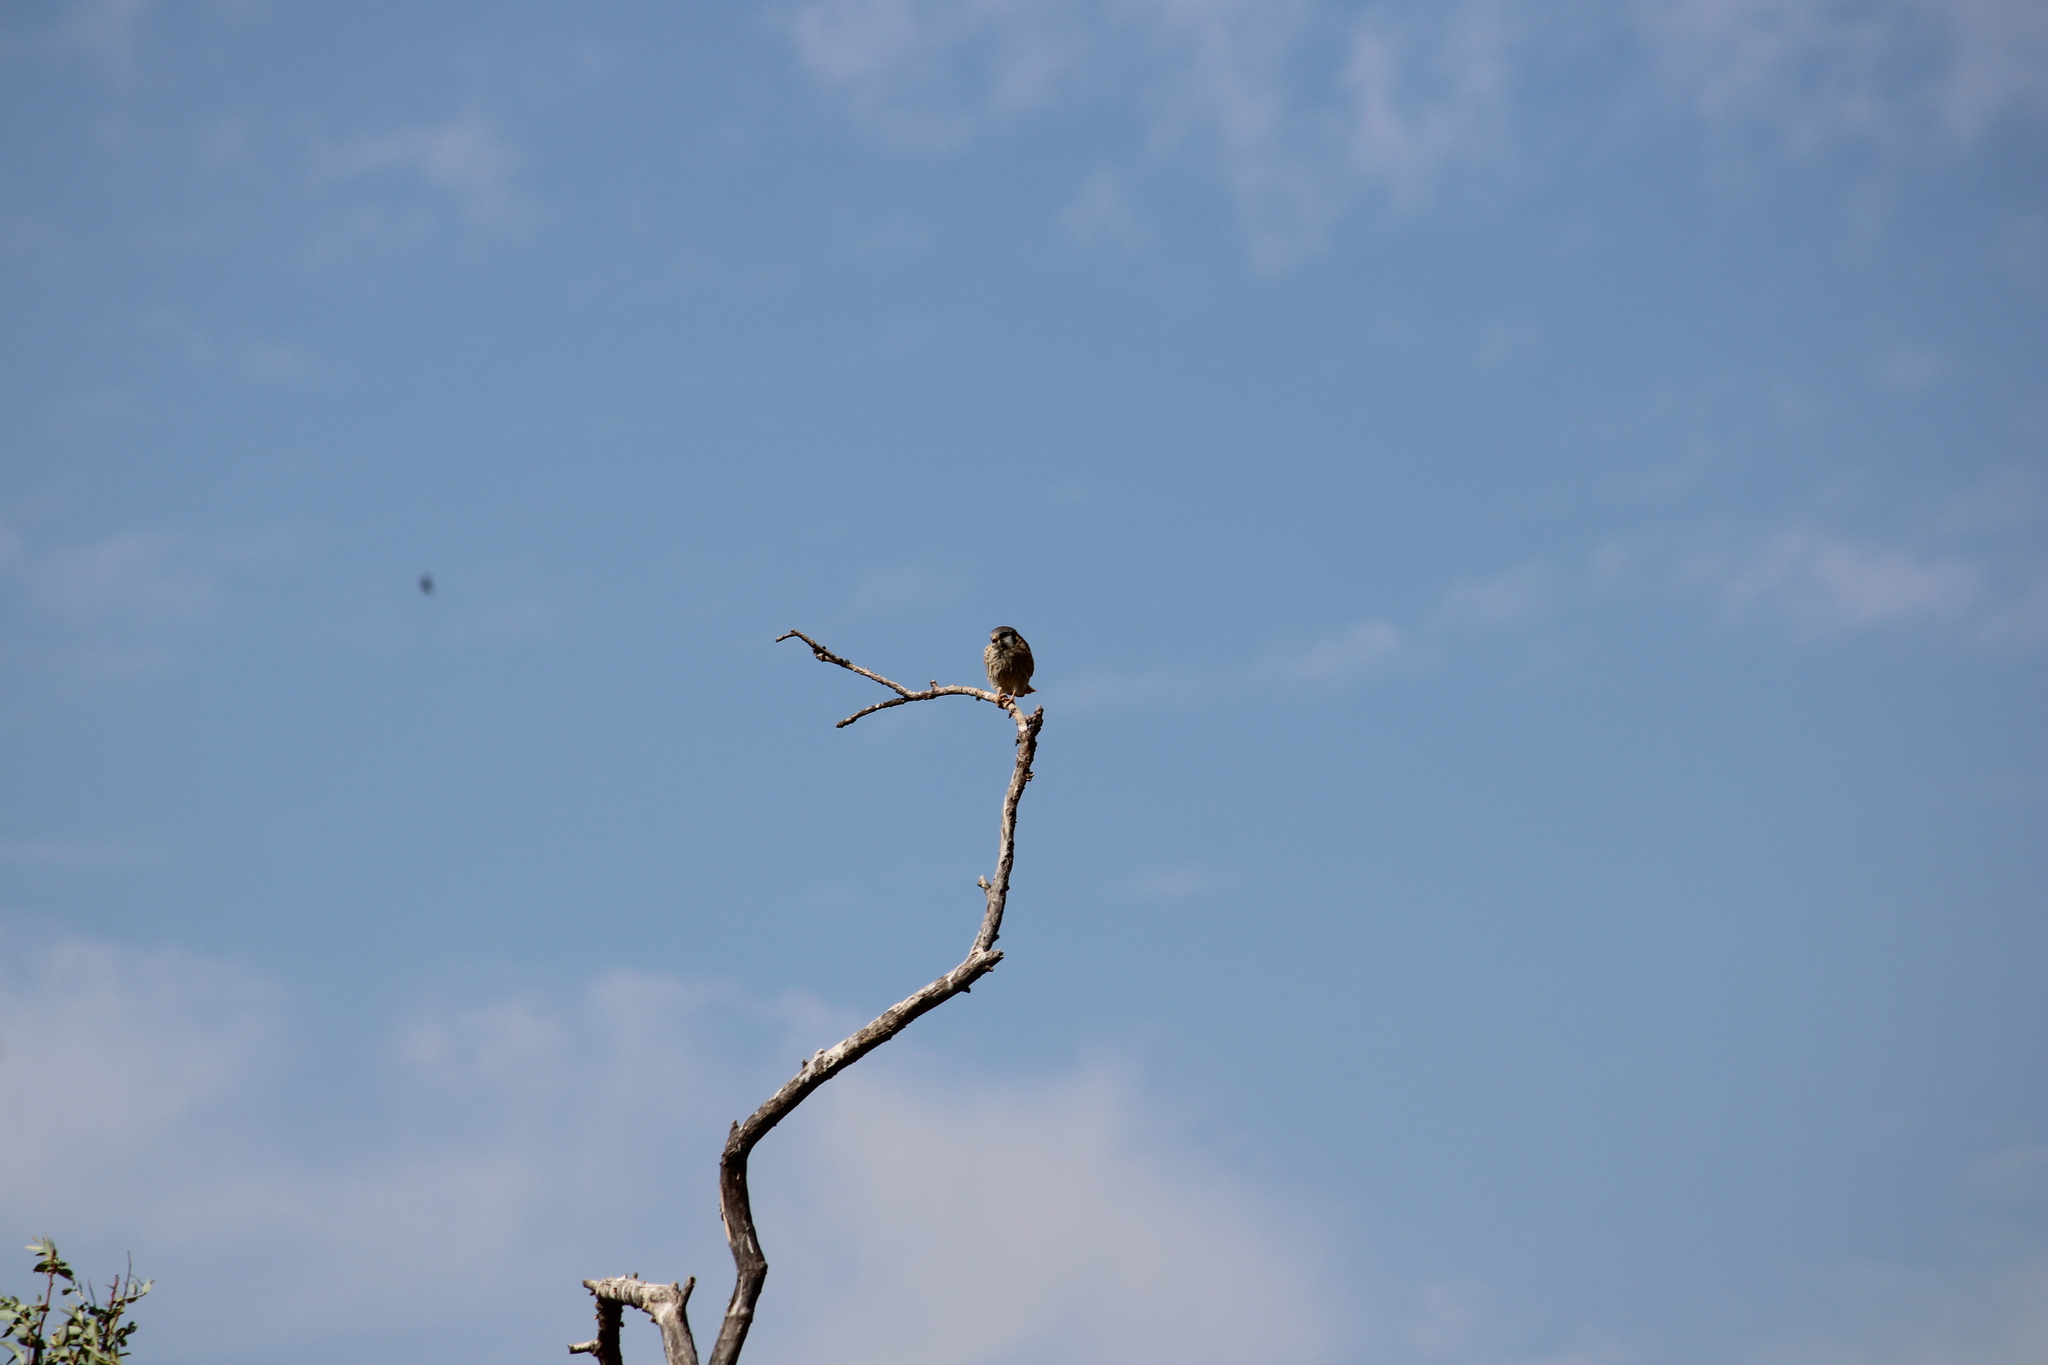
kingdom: Animalia
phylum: Chordata
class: Aves
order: Falconiformes
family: Falconidae
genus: Falco
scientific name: Falco sparverius
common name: American kestrel
